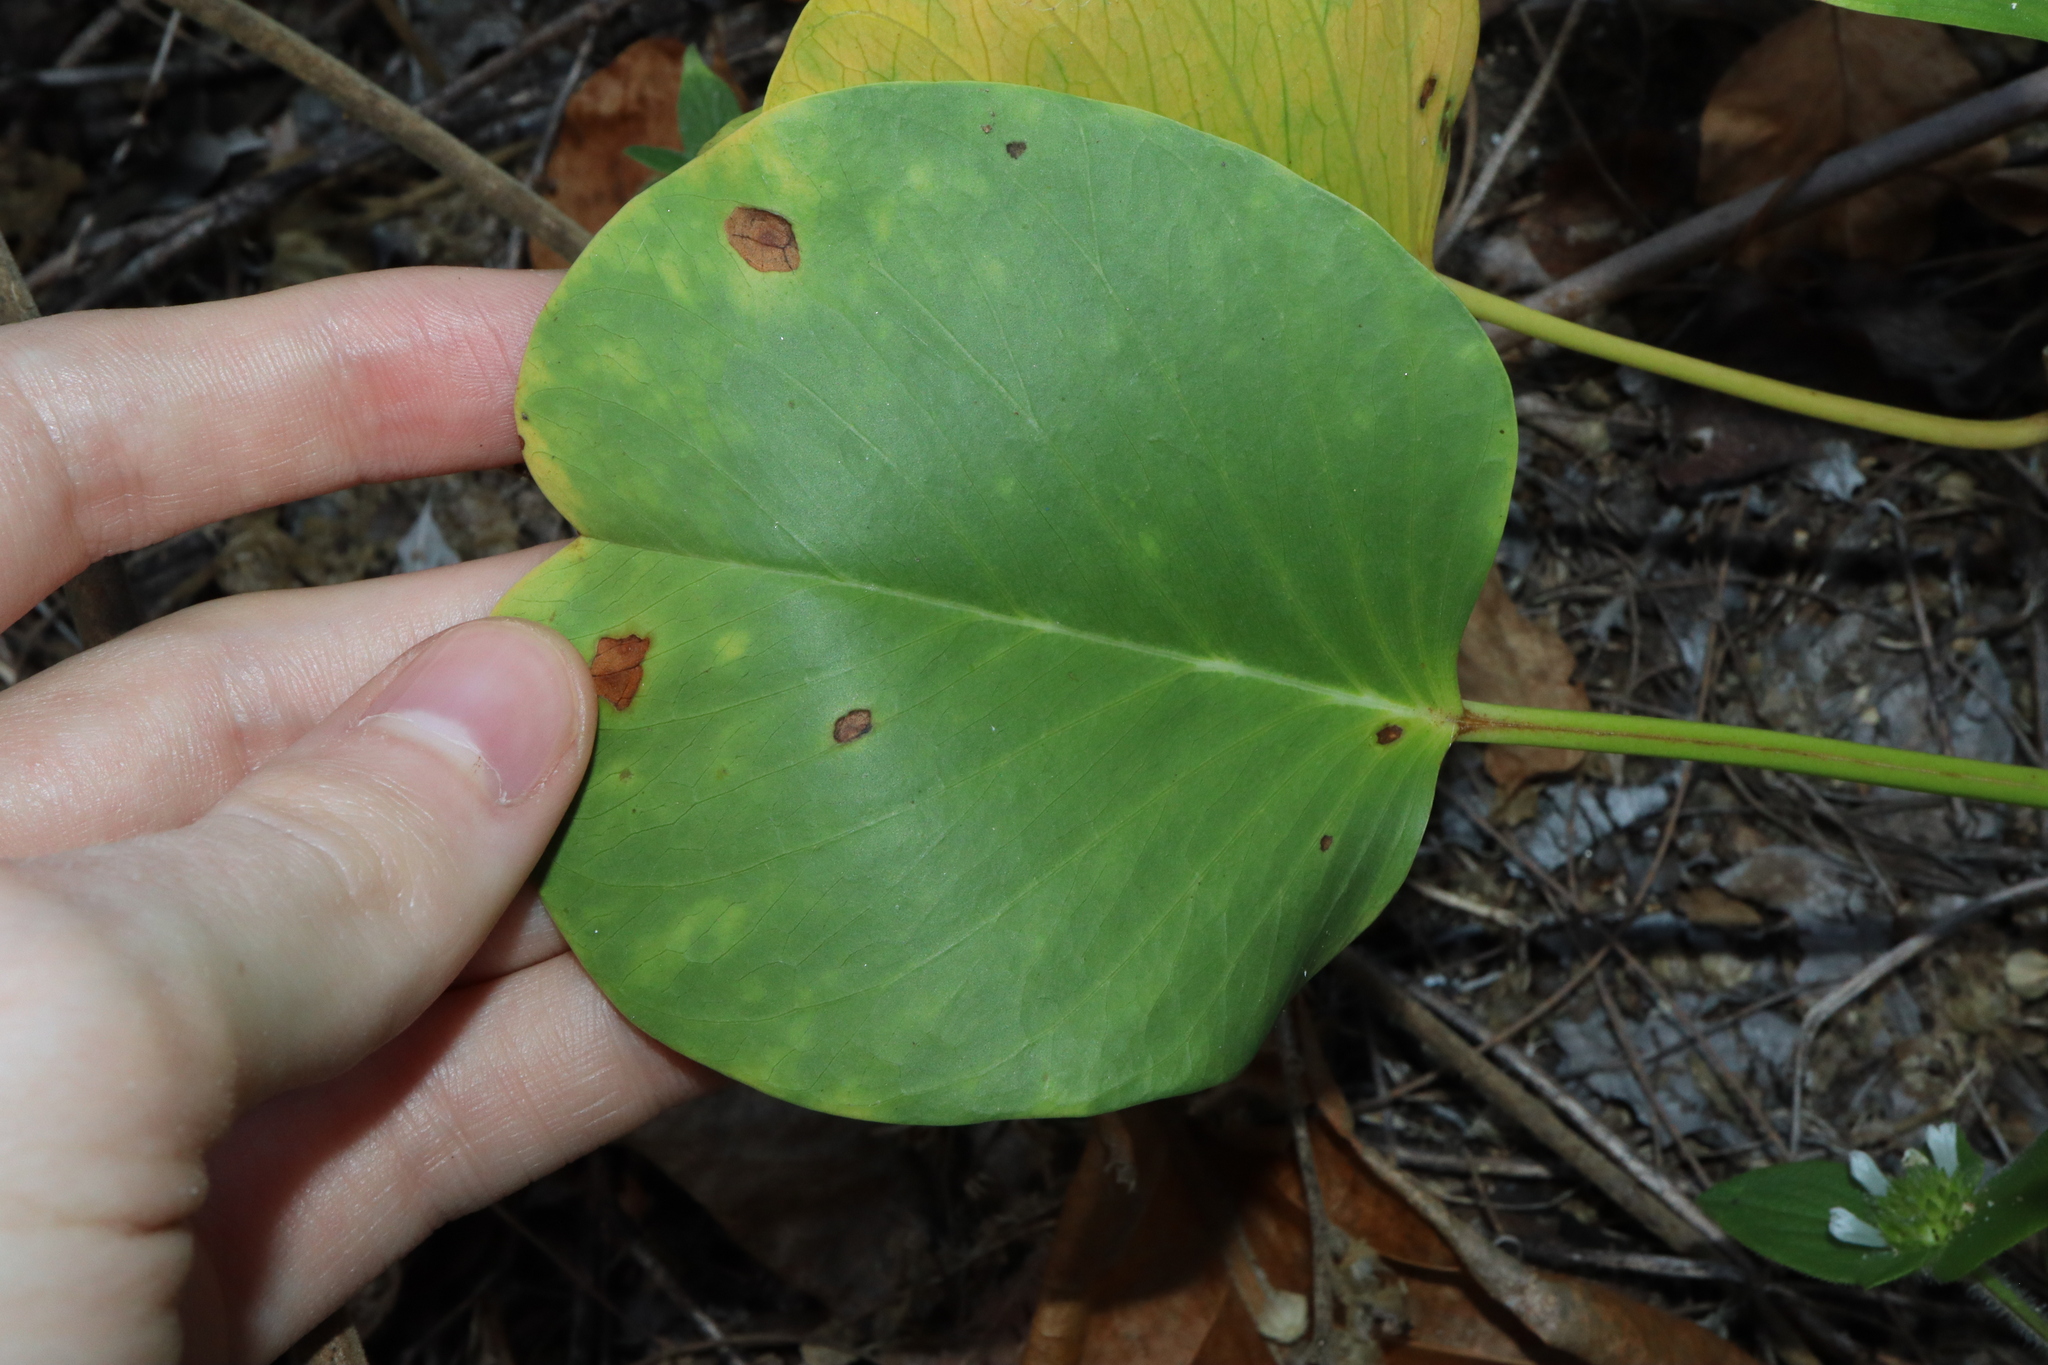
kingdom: Plantae
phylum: Tracheophyta
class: Magnoliopsida
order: Solanales
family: Convolvulaceae
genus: Ipomoea
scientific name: Ipomoea pes-caprae
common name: Beach morning glory
